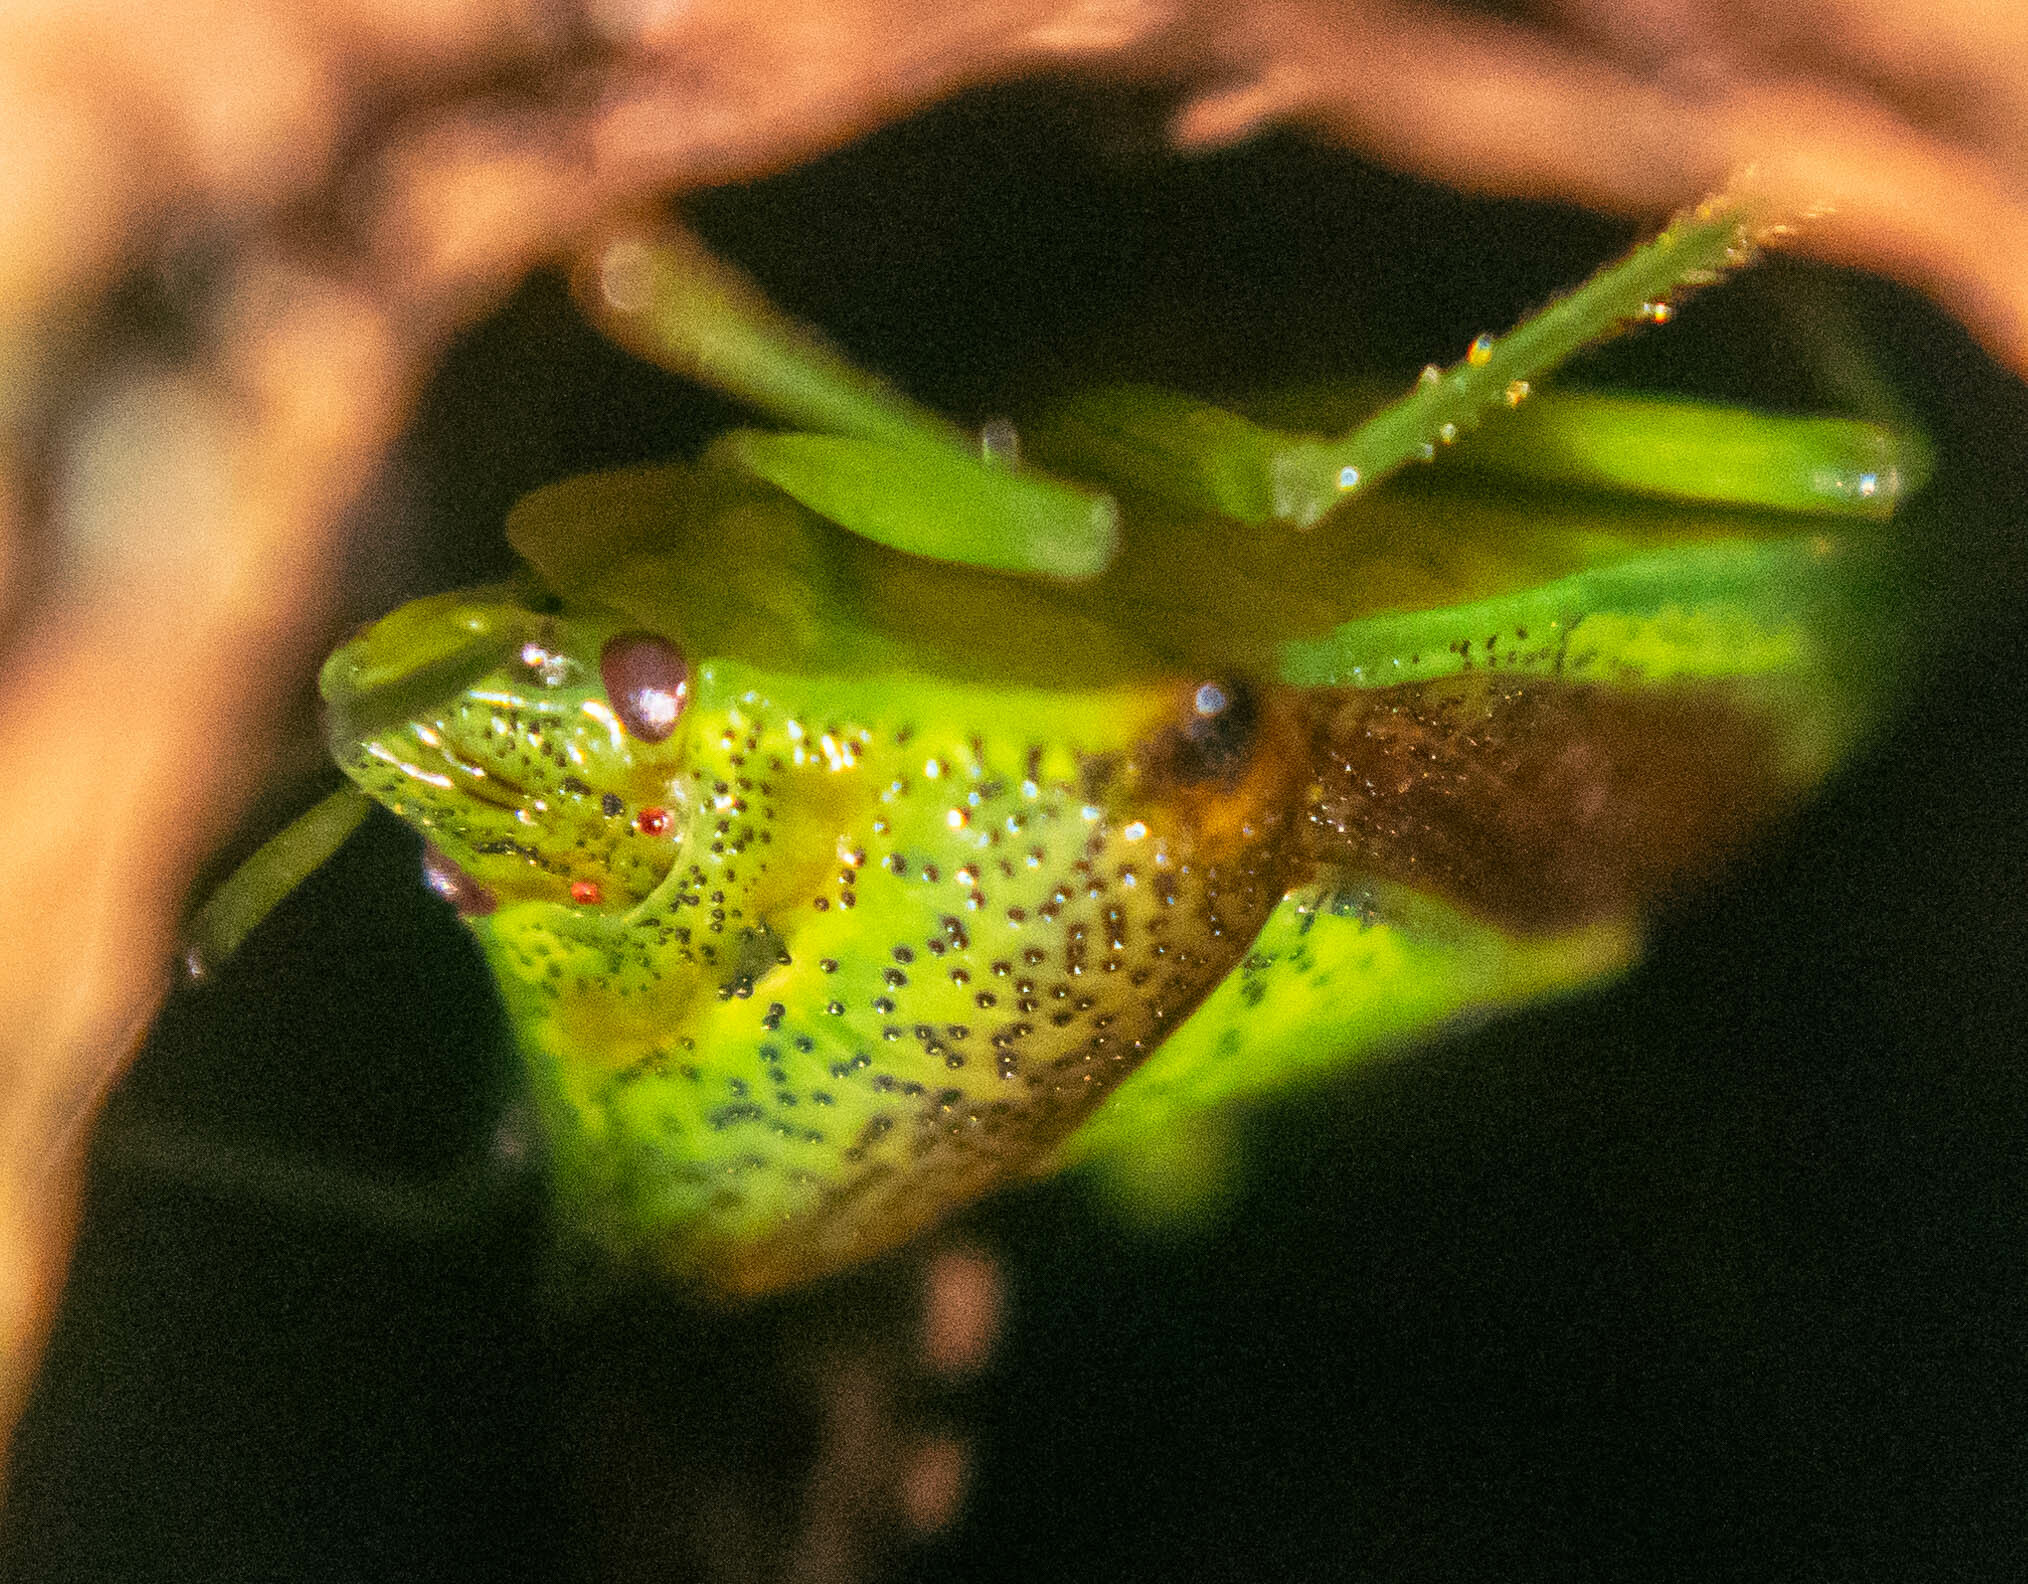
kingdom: Animalia
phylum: Arthropoda
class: Insecta
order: Hemiptera
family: Acanthosomatidae
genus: Acanthosoma
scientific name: Acanthosoma haemorrhoidale
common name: Hawthorn shieldbug
